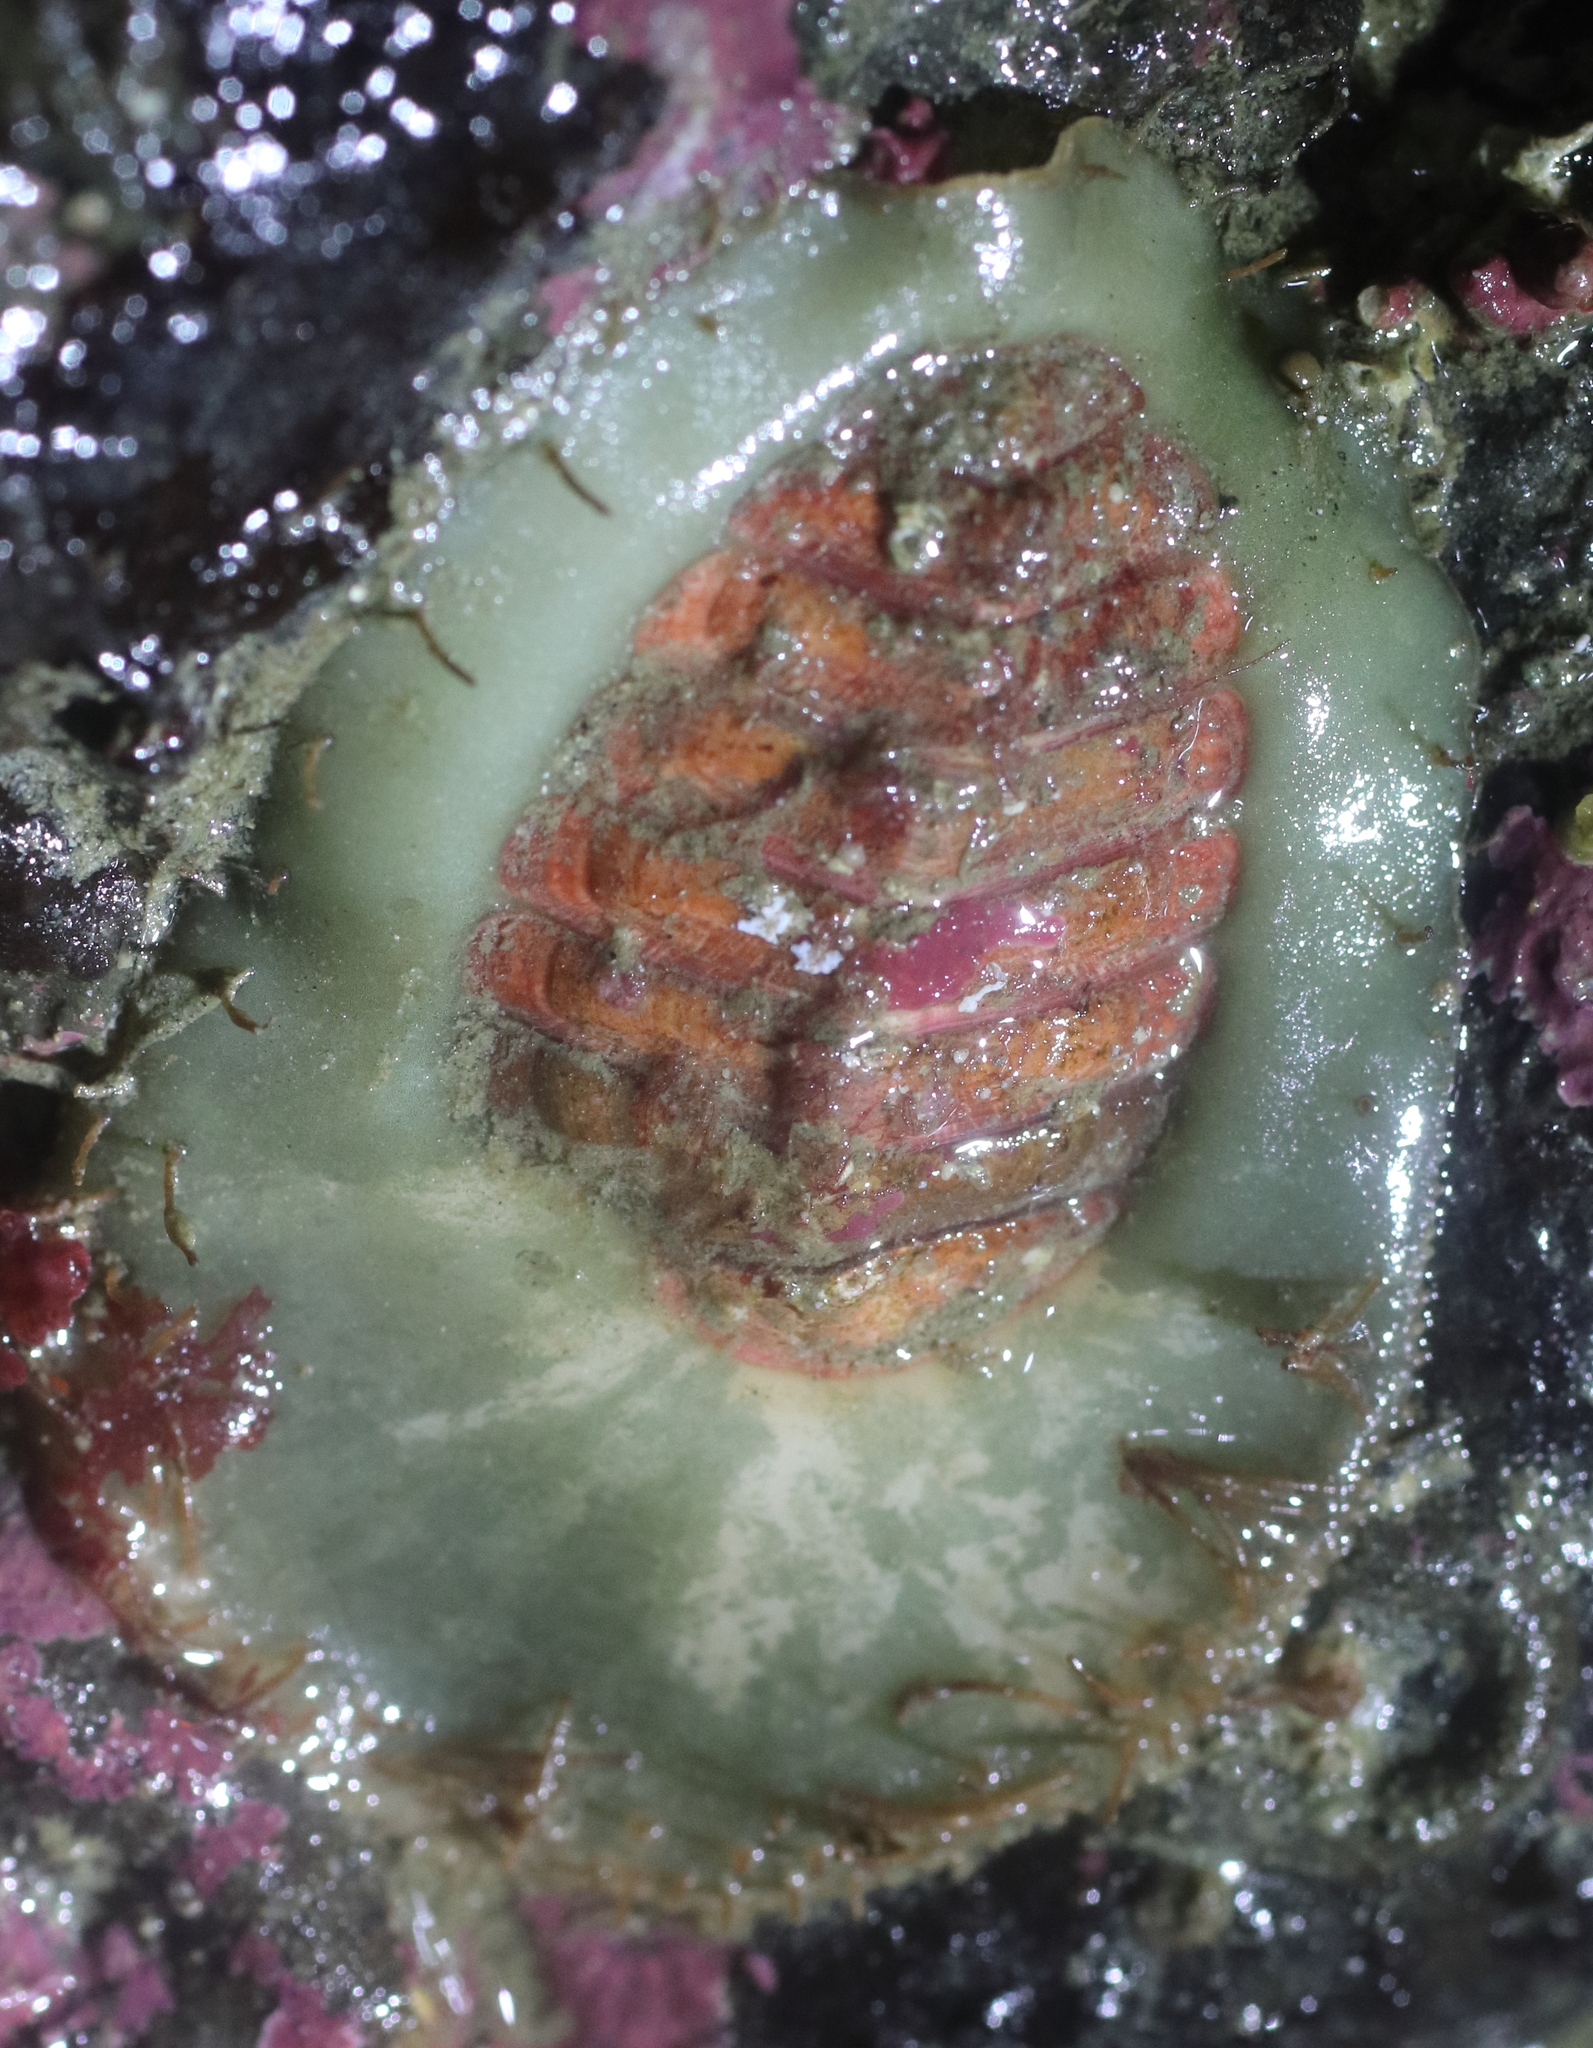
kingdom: Animalia
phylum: Mollusca
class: Polyplacophora
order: Chitonida
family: Mopaliidae
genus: Placiphorella
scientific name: Placiphorella rufa
